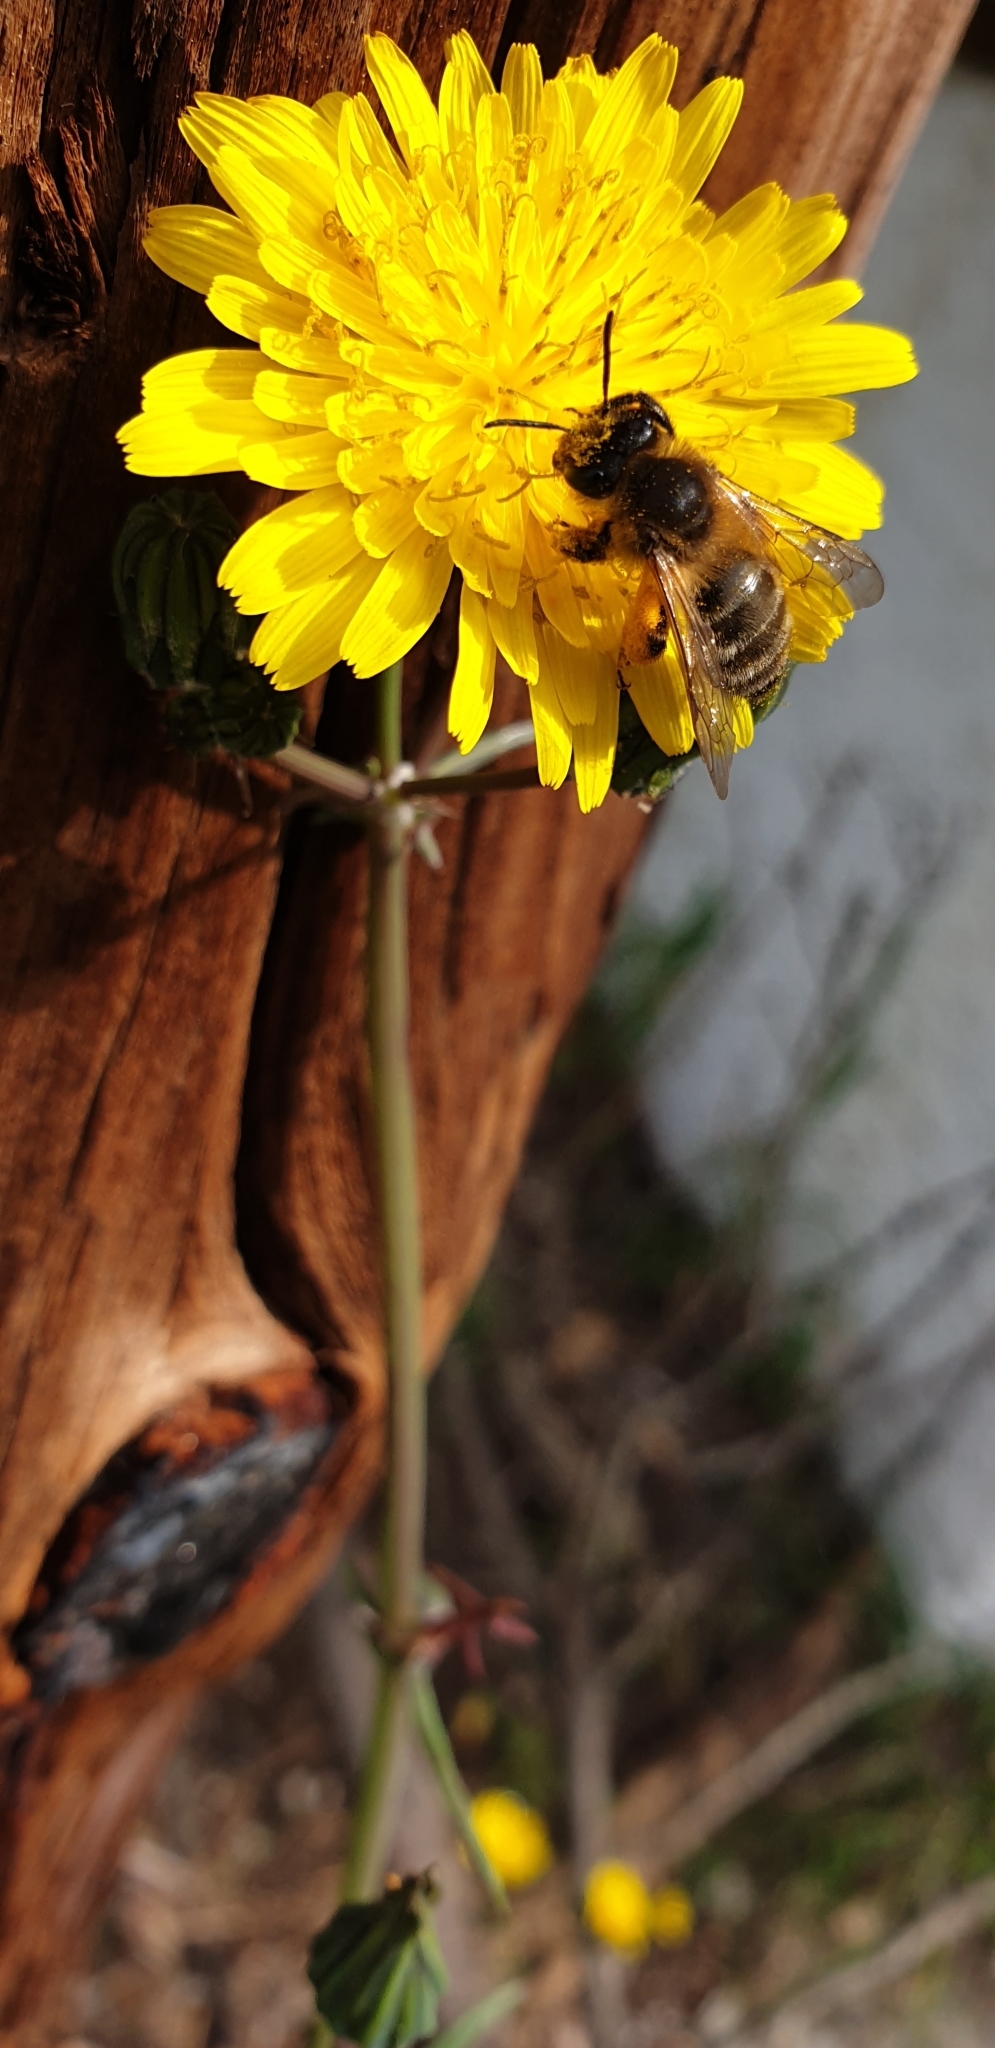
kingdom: Animalia
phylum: Arthropoda
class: Insecta
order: Hymenoptera
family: Apidae
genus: Apis
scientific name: Apis mellifera
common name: Honey bee
